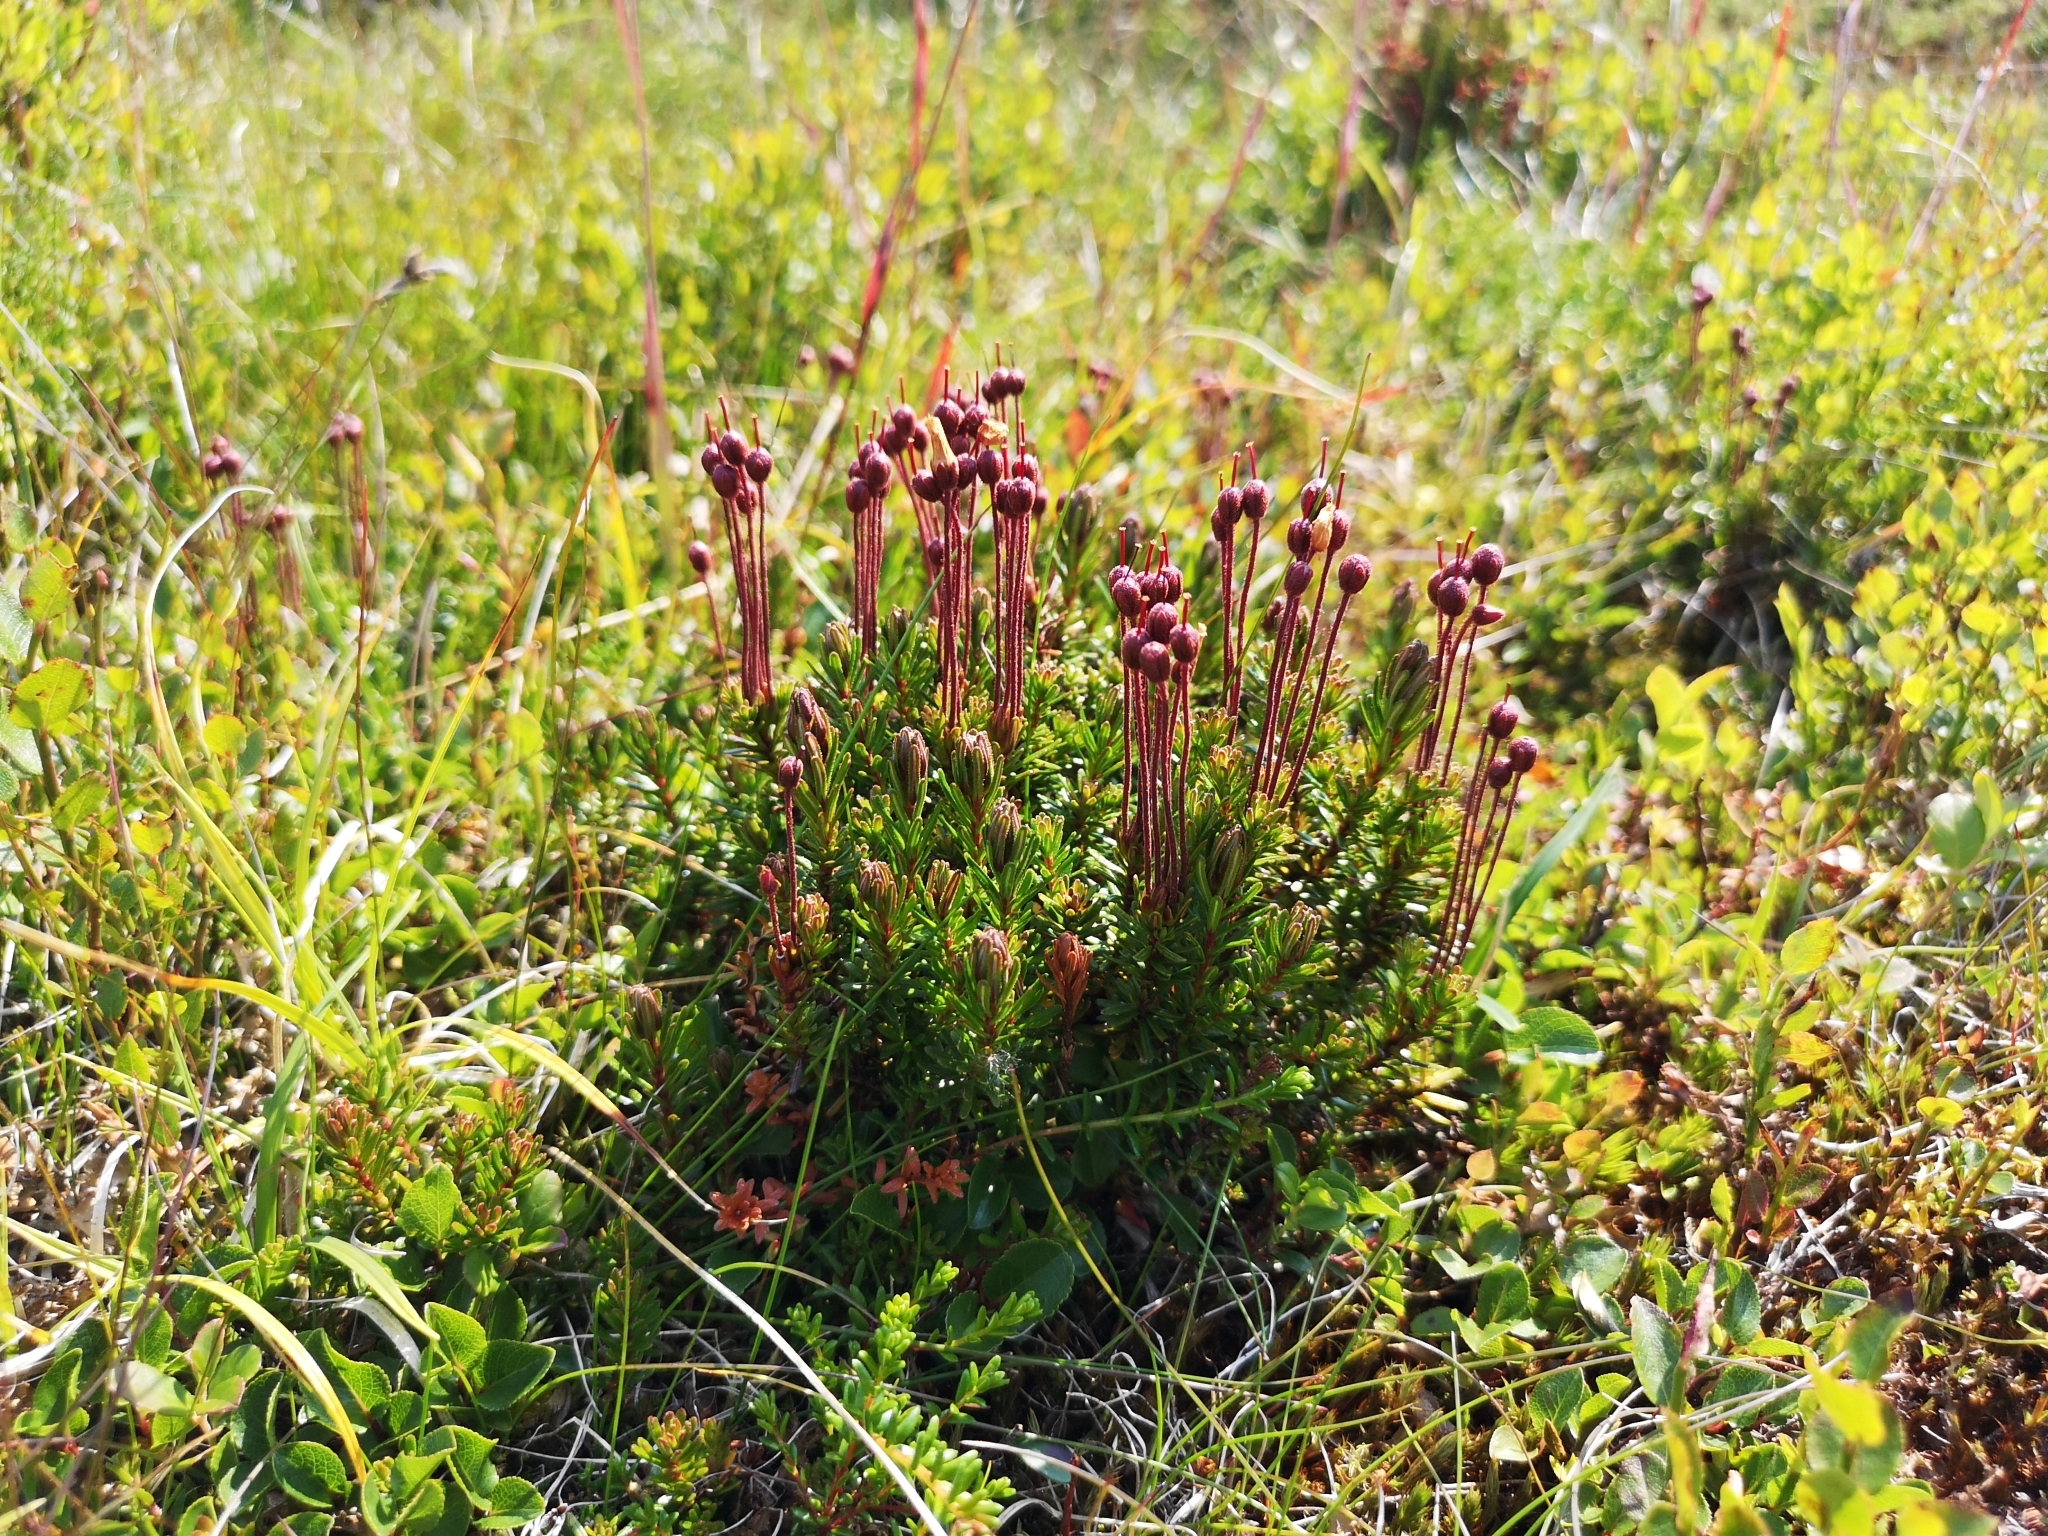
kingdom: Plantae
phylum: Tracheophyta
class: Magnoliopsida
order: Ericales
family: Ericaceae
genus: Phyllodoce
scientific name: Phyllodoce caerulea
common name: Blue heath
